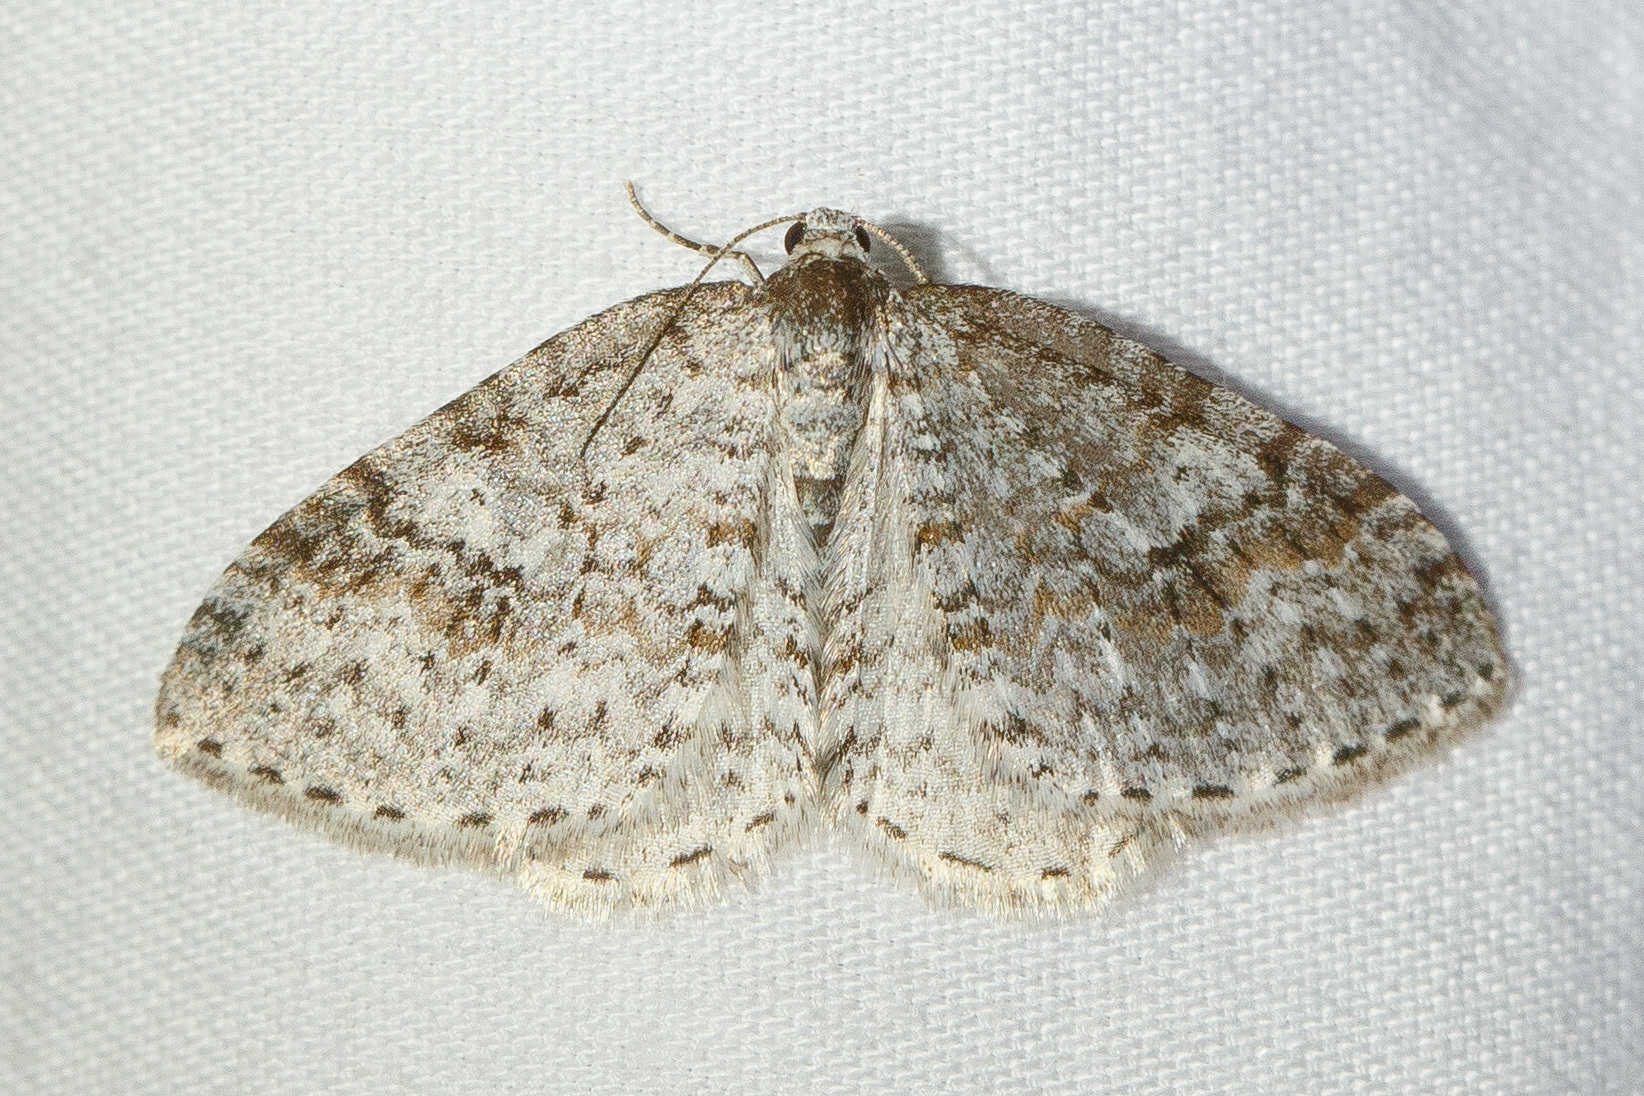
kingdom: Animalia
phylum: Arthropoda
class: Insecta
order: Lepidoptera
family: Geometridae
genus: Venusia
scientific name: Venusia pearsalli
